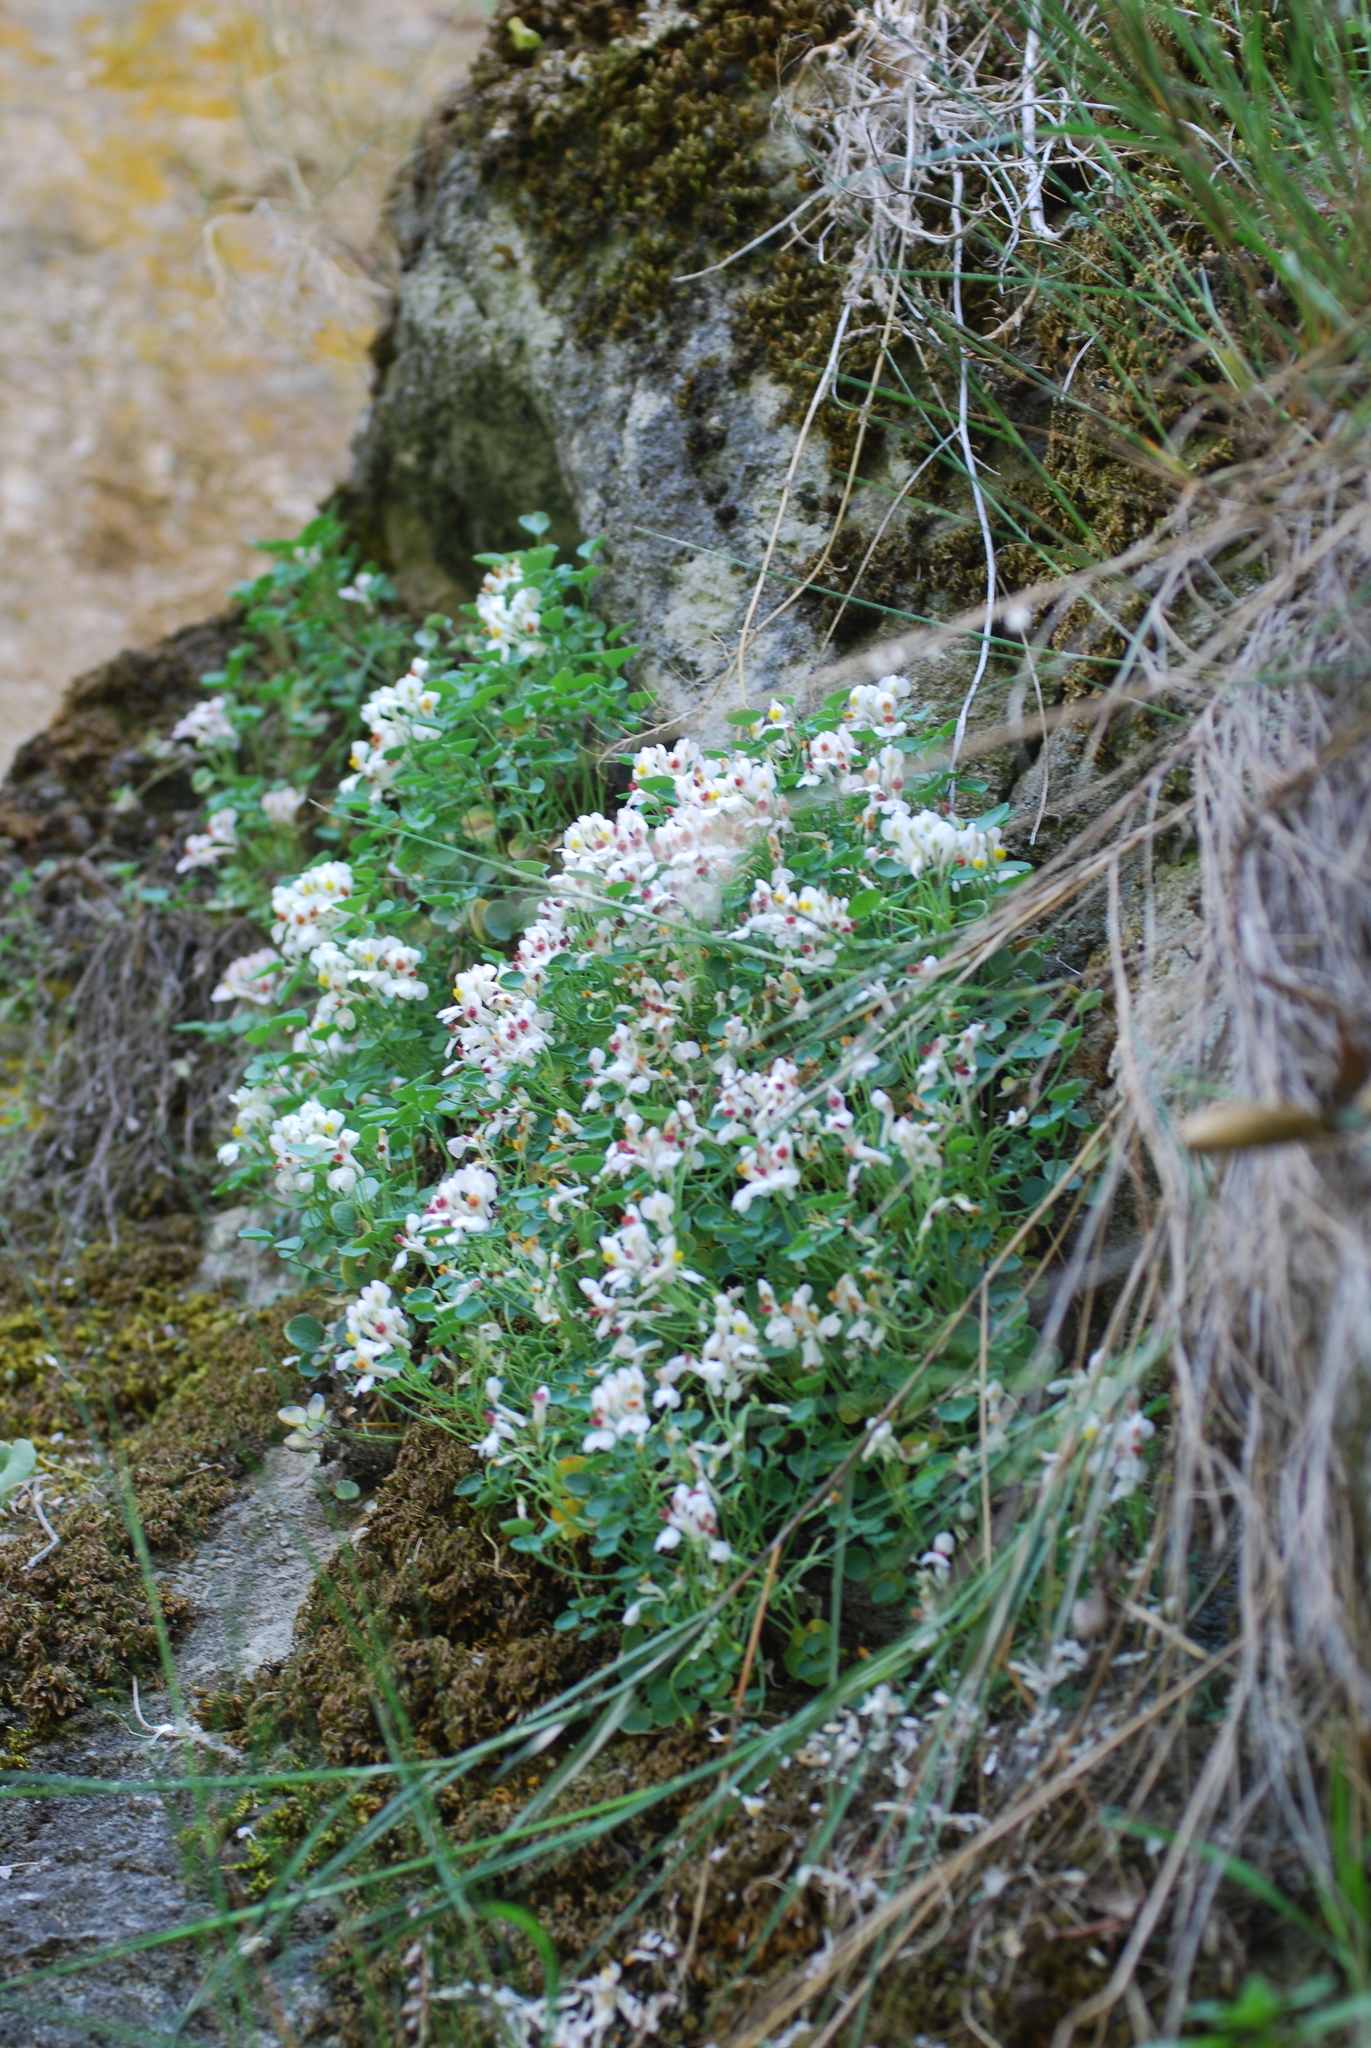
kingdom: Plantae
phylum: Tracheophyta
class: Magnoliopsida
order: Ranunculales
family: Papaveraceae
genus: Sarcocapnos
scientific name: Sarcocapnos baetica
